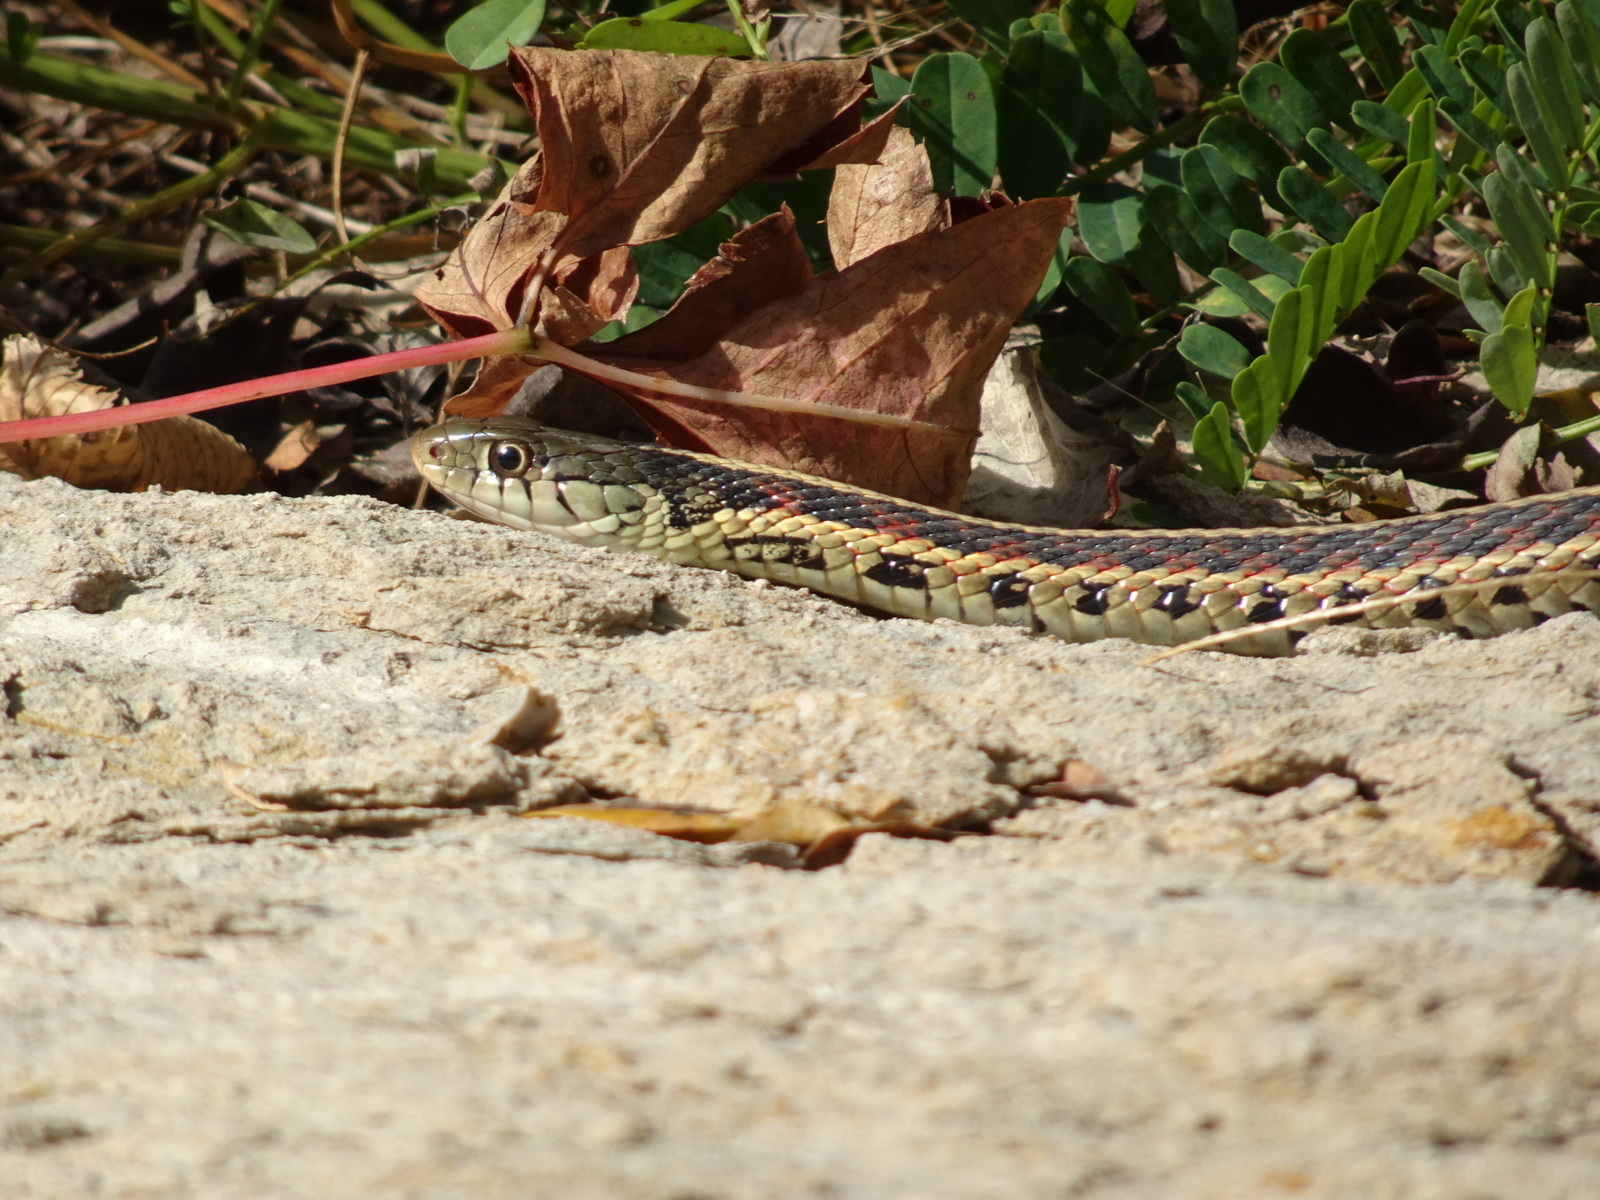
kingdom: Animalia
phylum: Chordata
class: Squamata
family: Colubridae
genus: Thamnophis
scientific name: Thamnophis sirtalis
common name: Common garter snake
